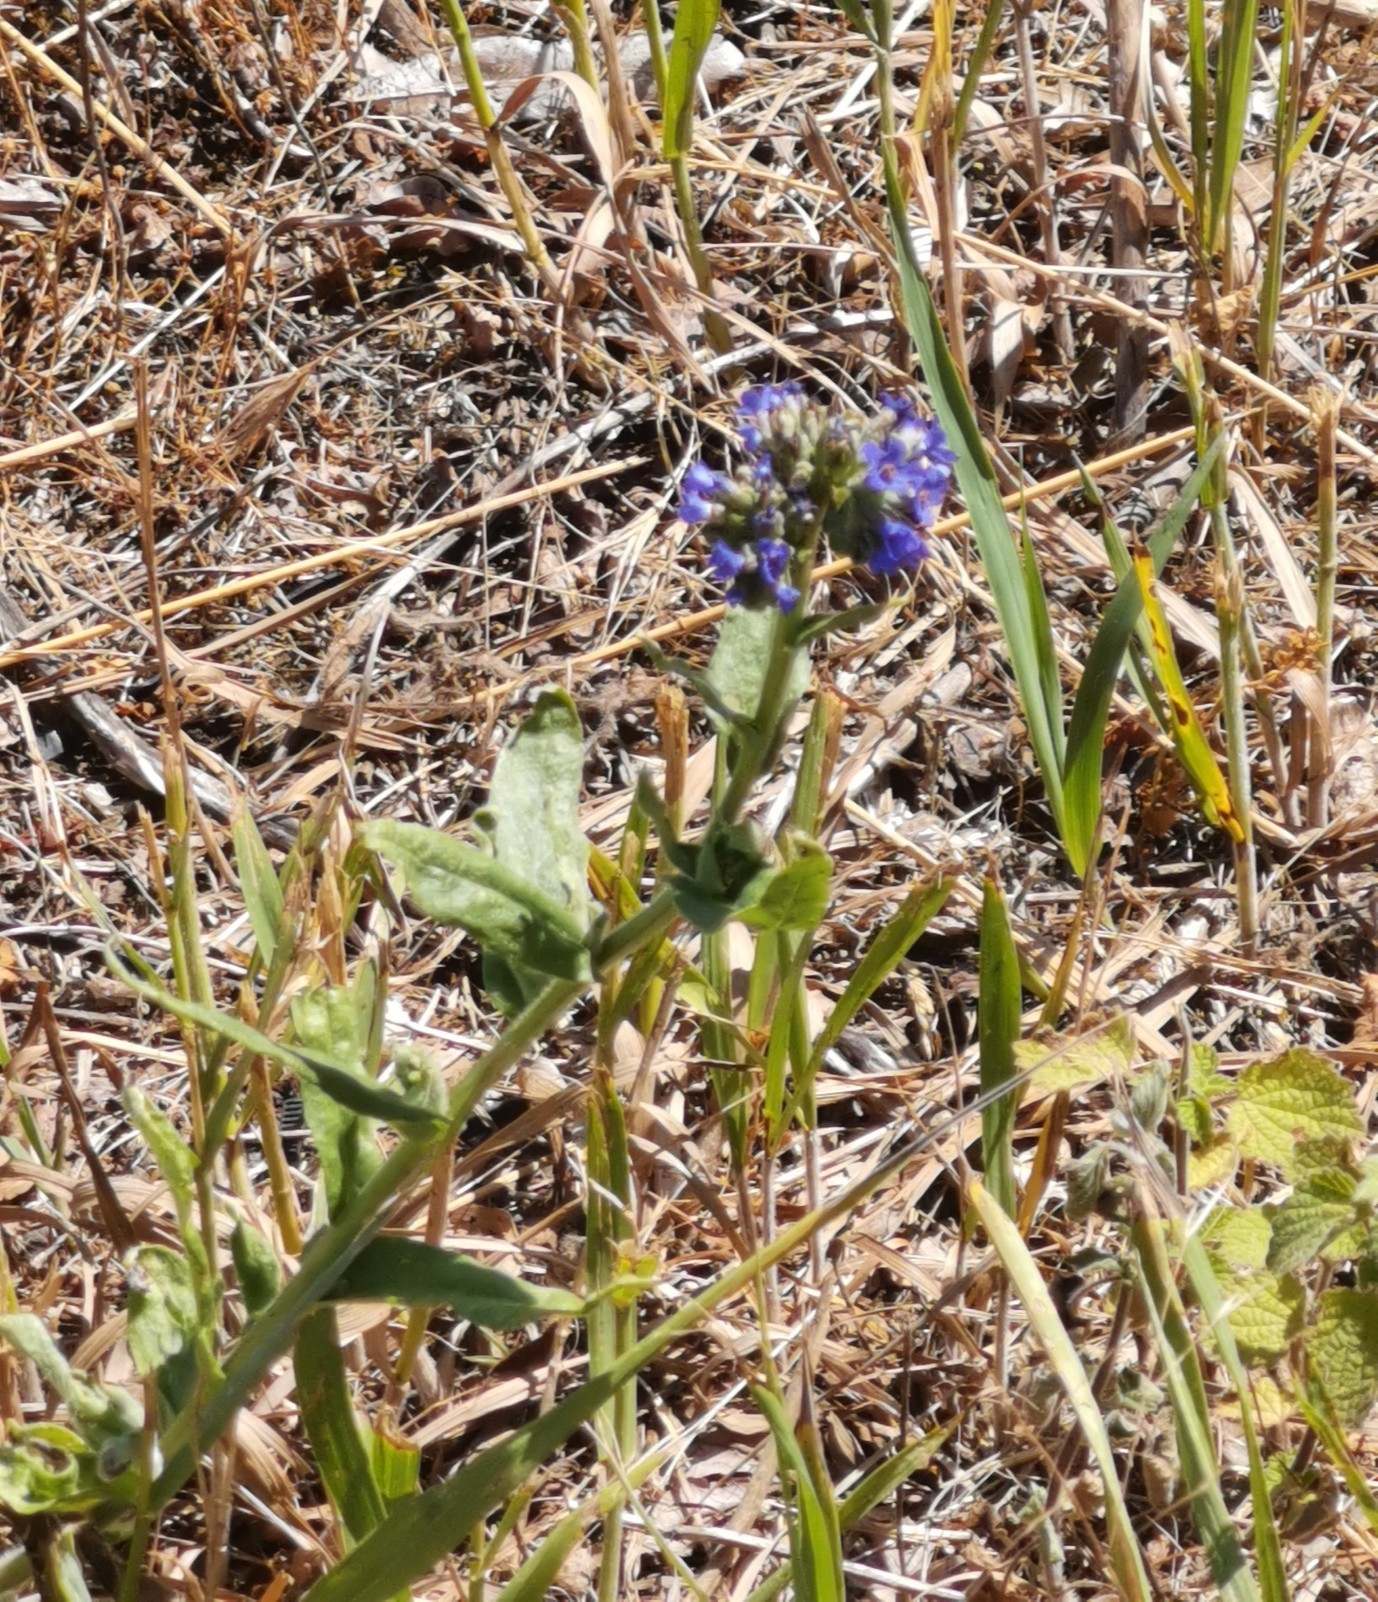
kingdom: Plantae
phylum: Tracheophyta
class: Magnoliopsida
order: Boraginales
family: Boraginaceae
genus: Anchusa
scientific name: Anchusa officinalis
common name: Alkanet
